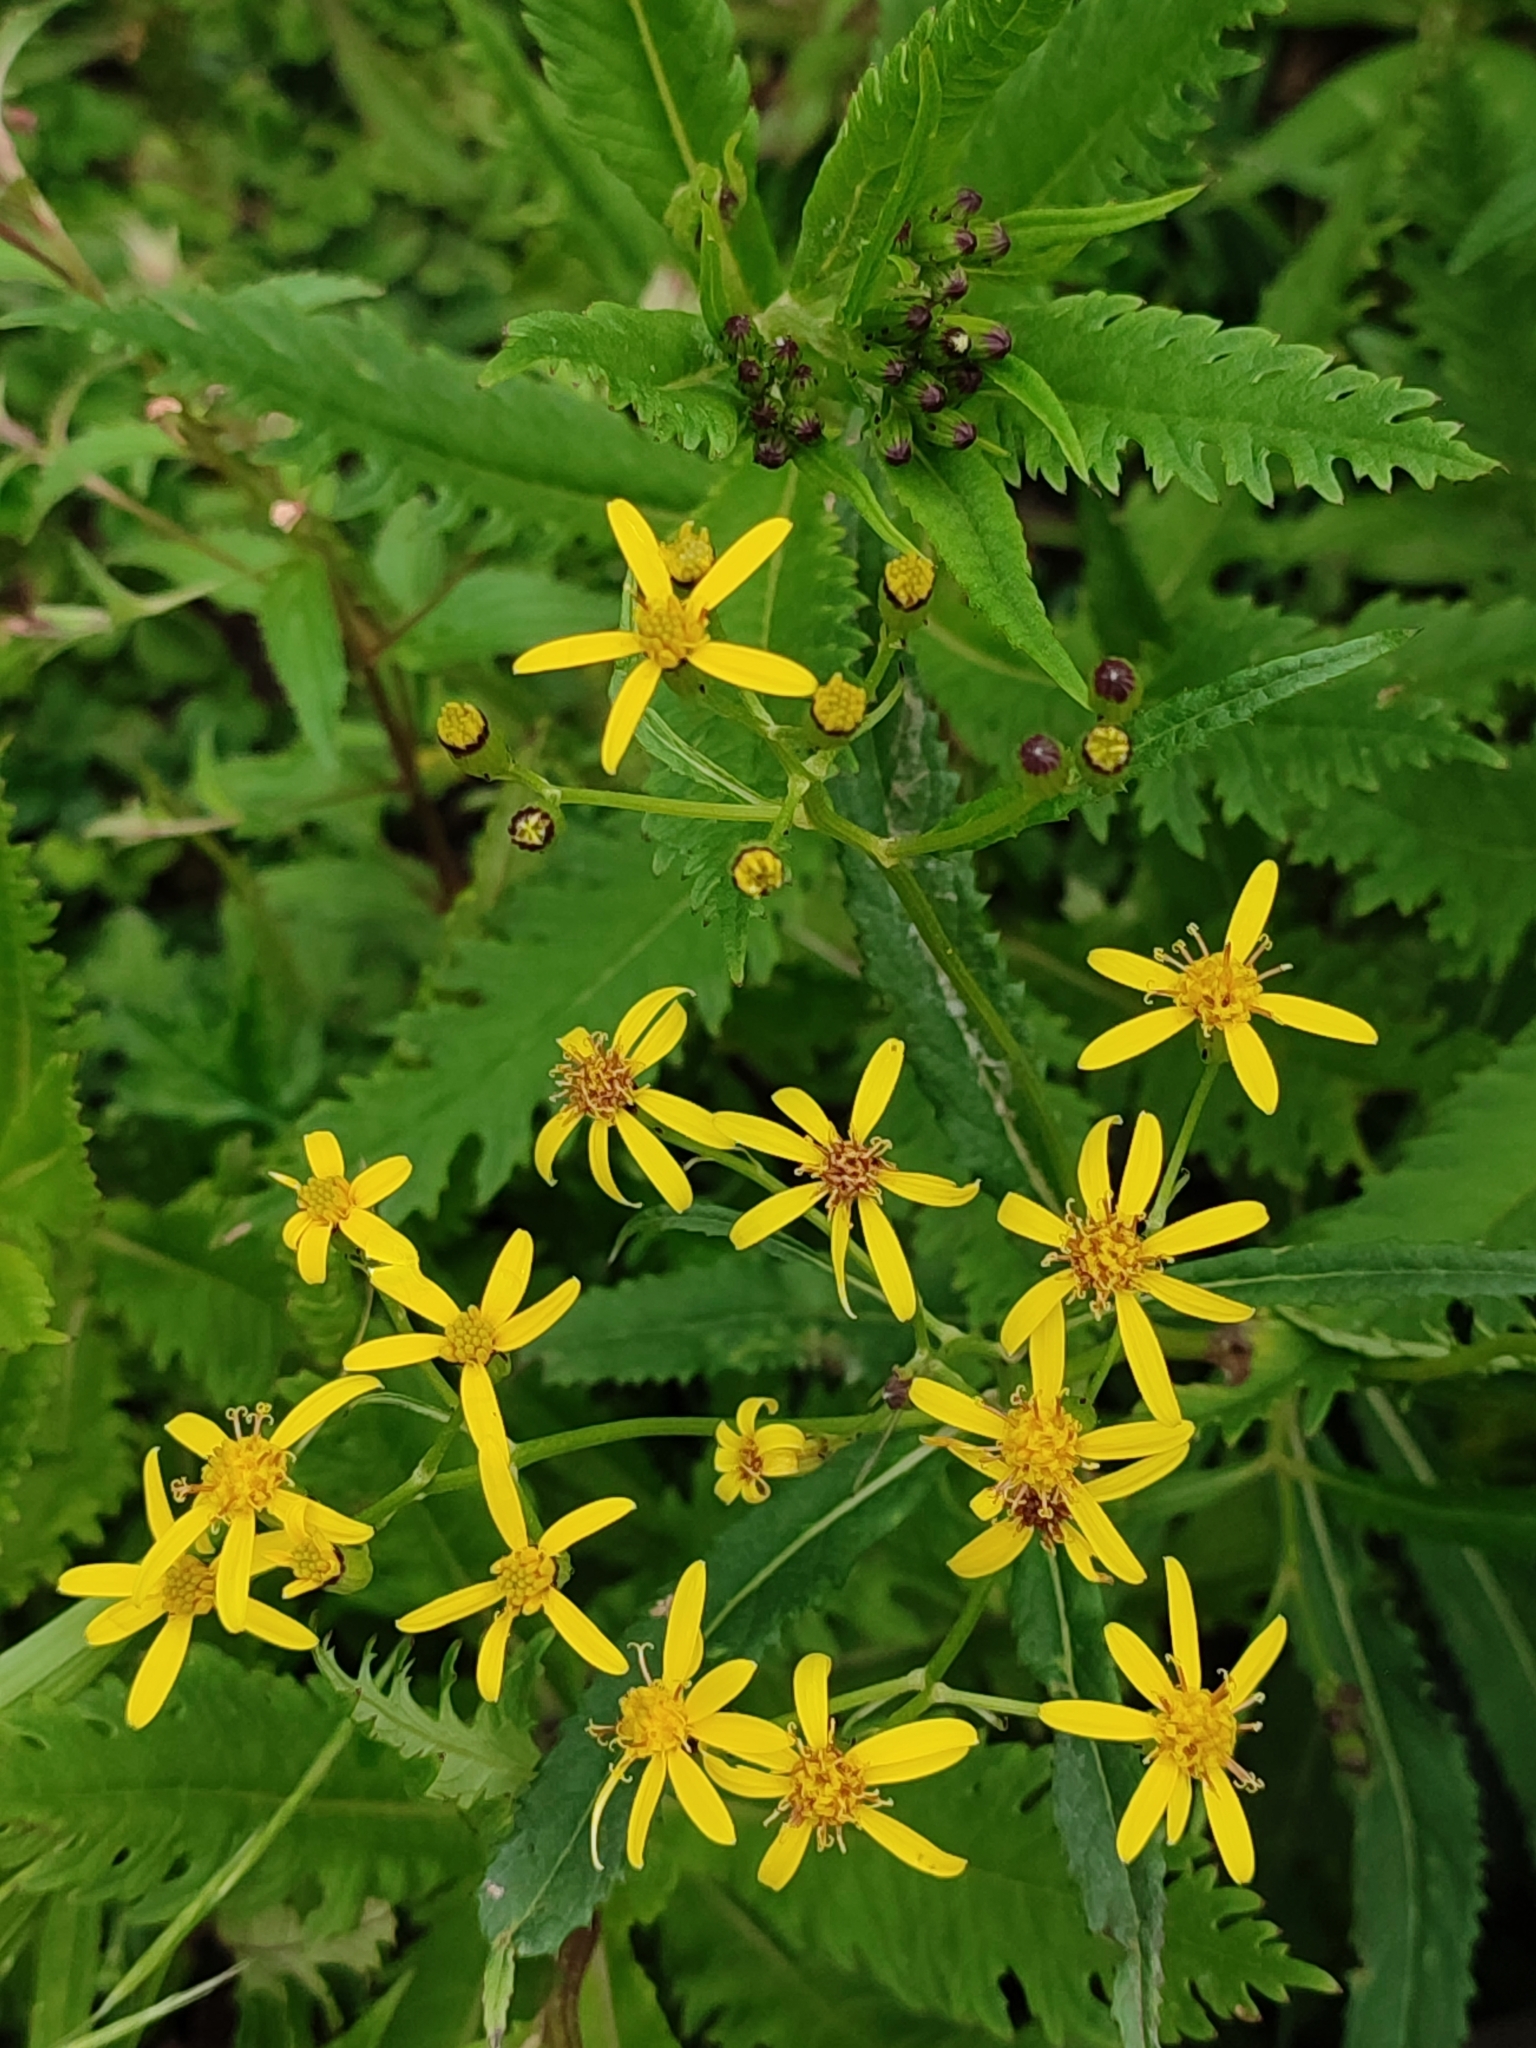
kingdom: Plantae
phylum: Tracheophyta
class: Magnoliopsida
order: Asterales
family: Asteraceae
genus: Senecio
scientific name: Senecio nemorensis
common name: Alpine ragwort
